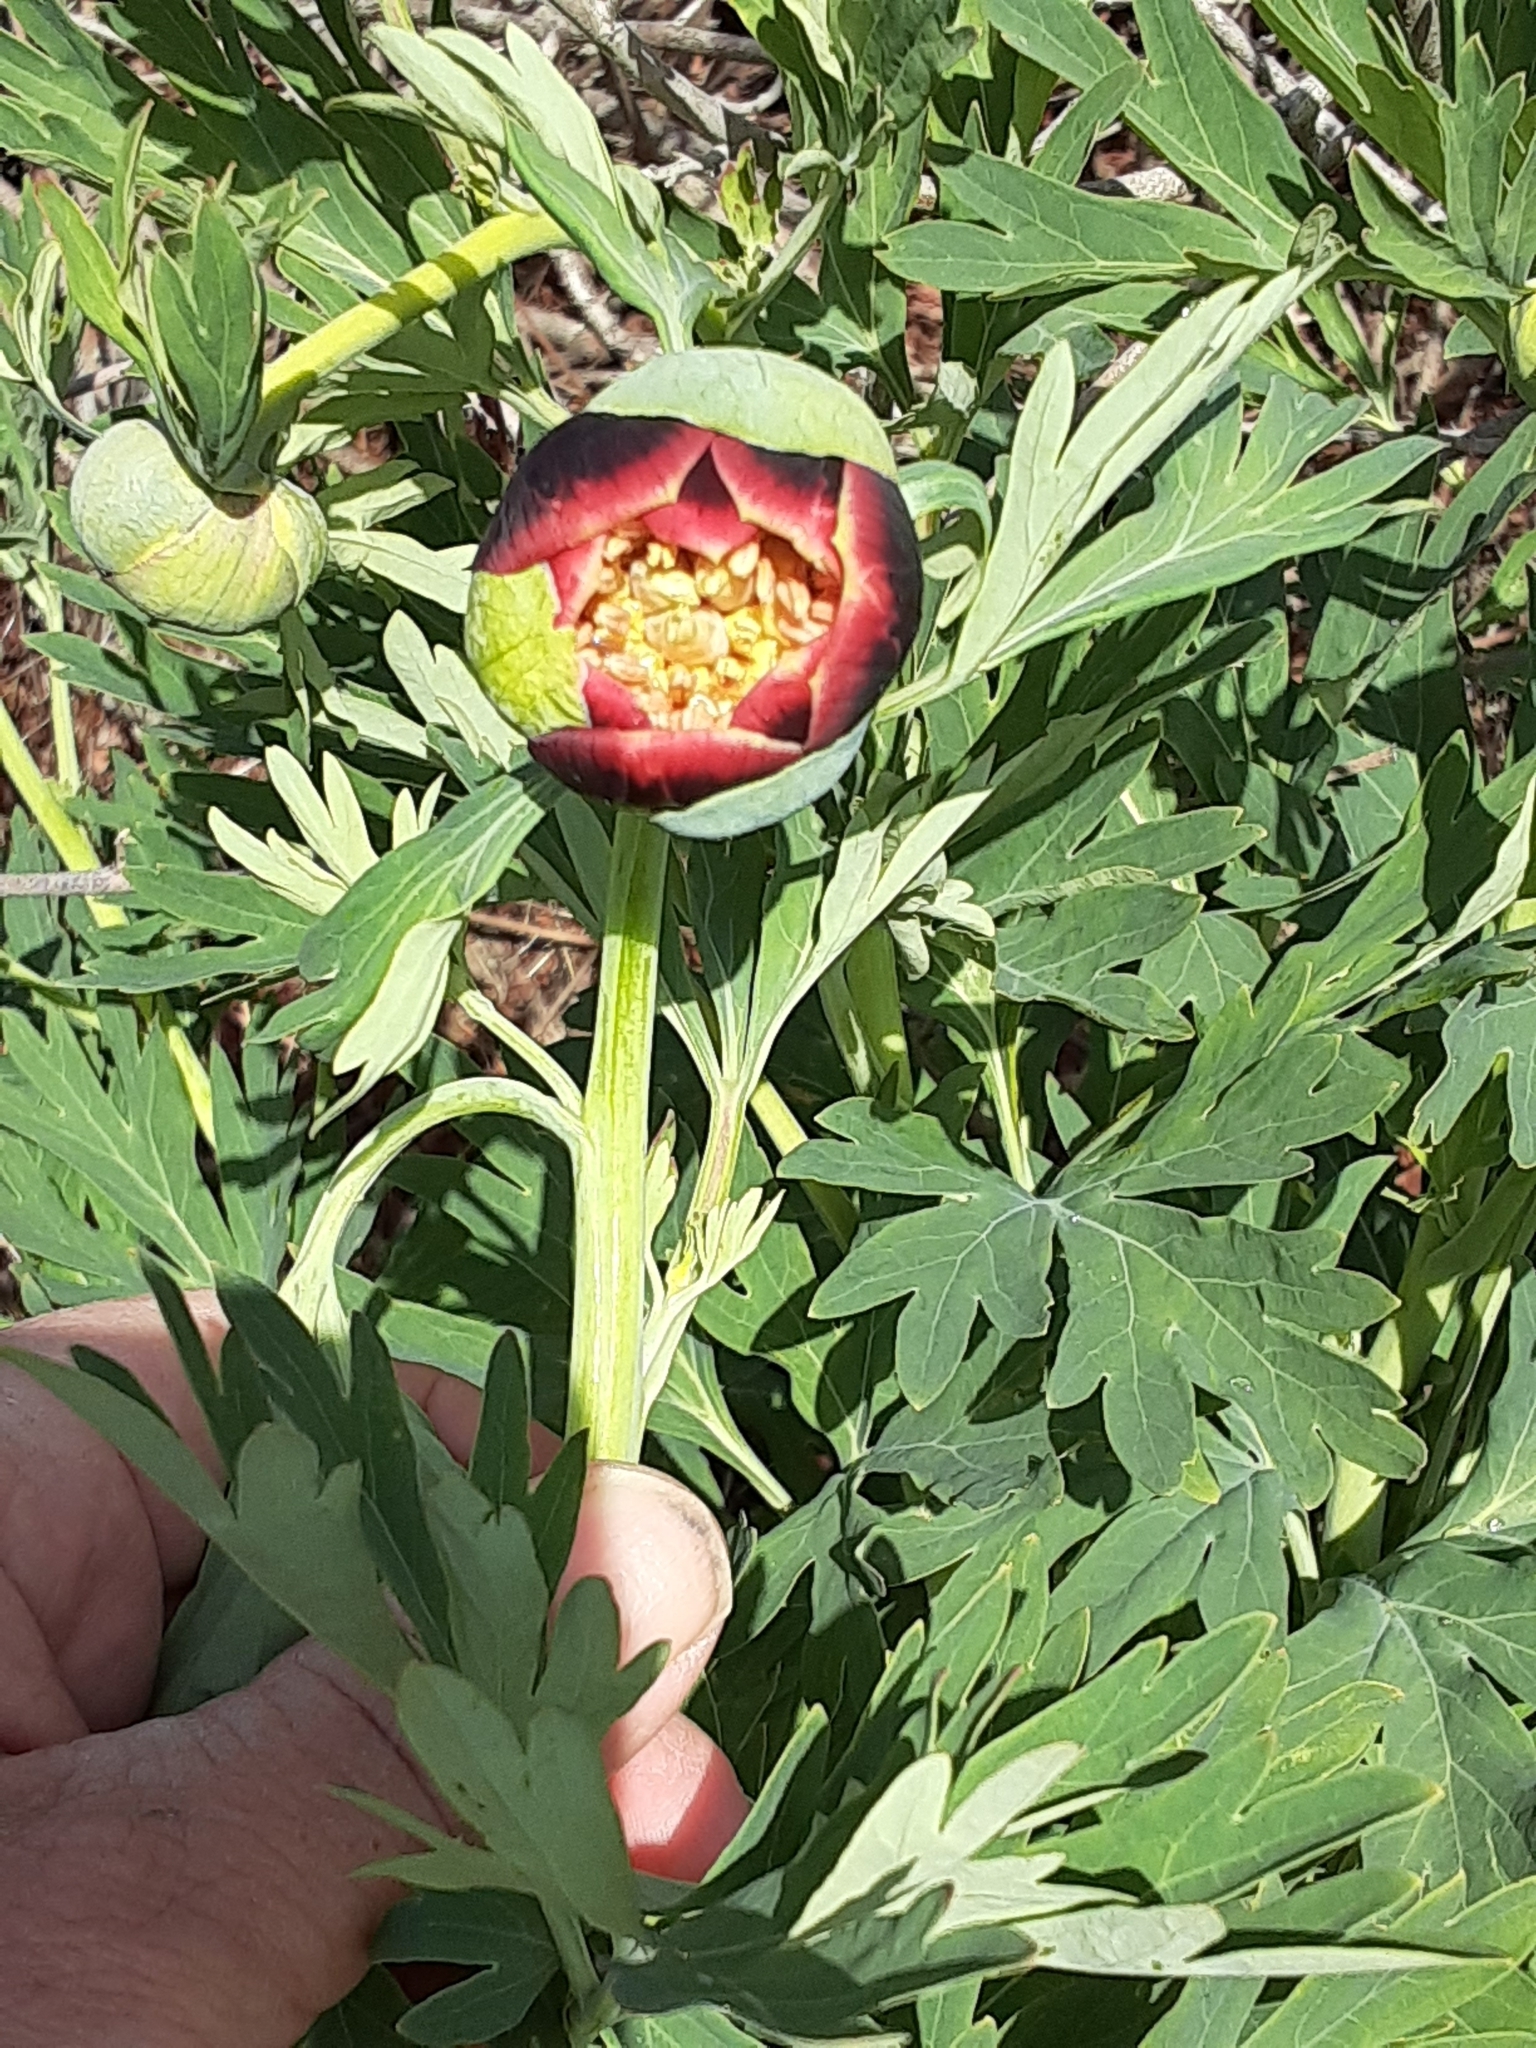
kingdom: Plantae
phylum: Tracheophyta
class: Magnoliopsida
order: Saxifragales
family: Paeoniaceae
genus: Paeonia
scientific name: Paeonia californica
